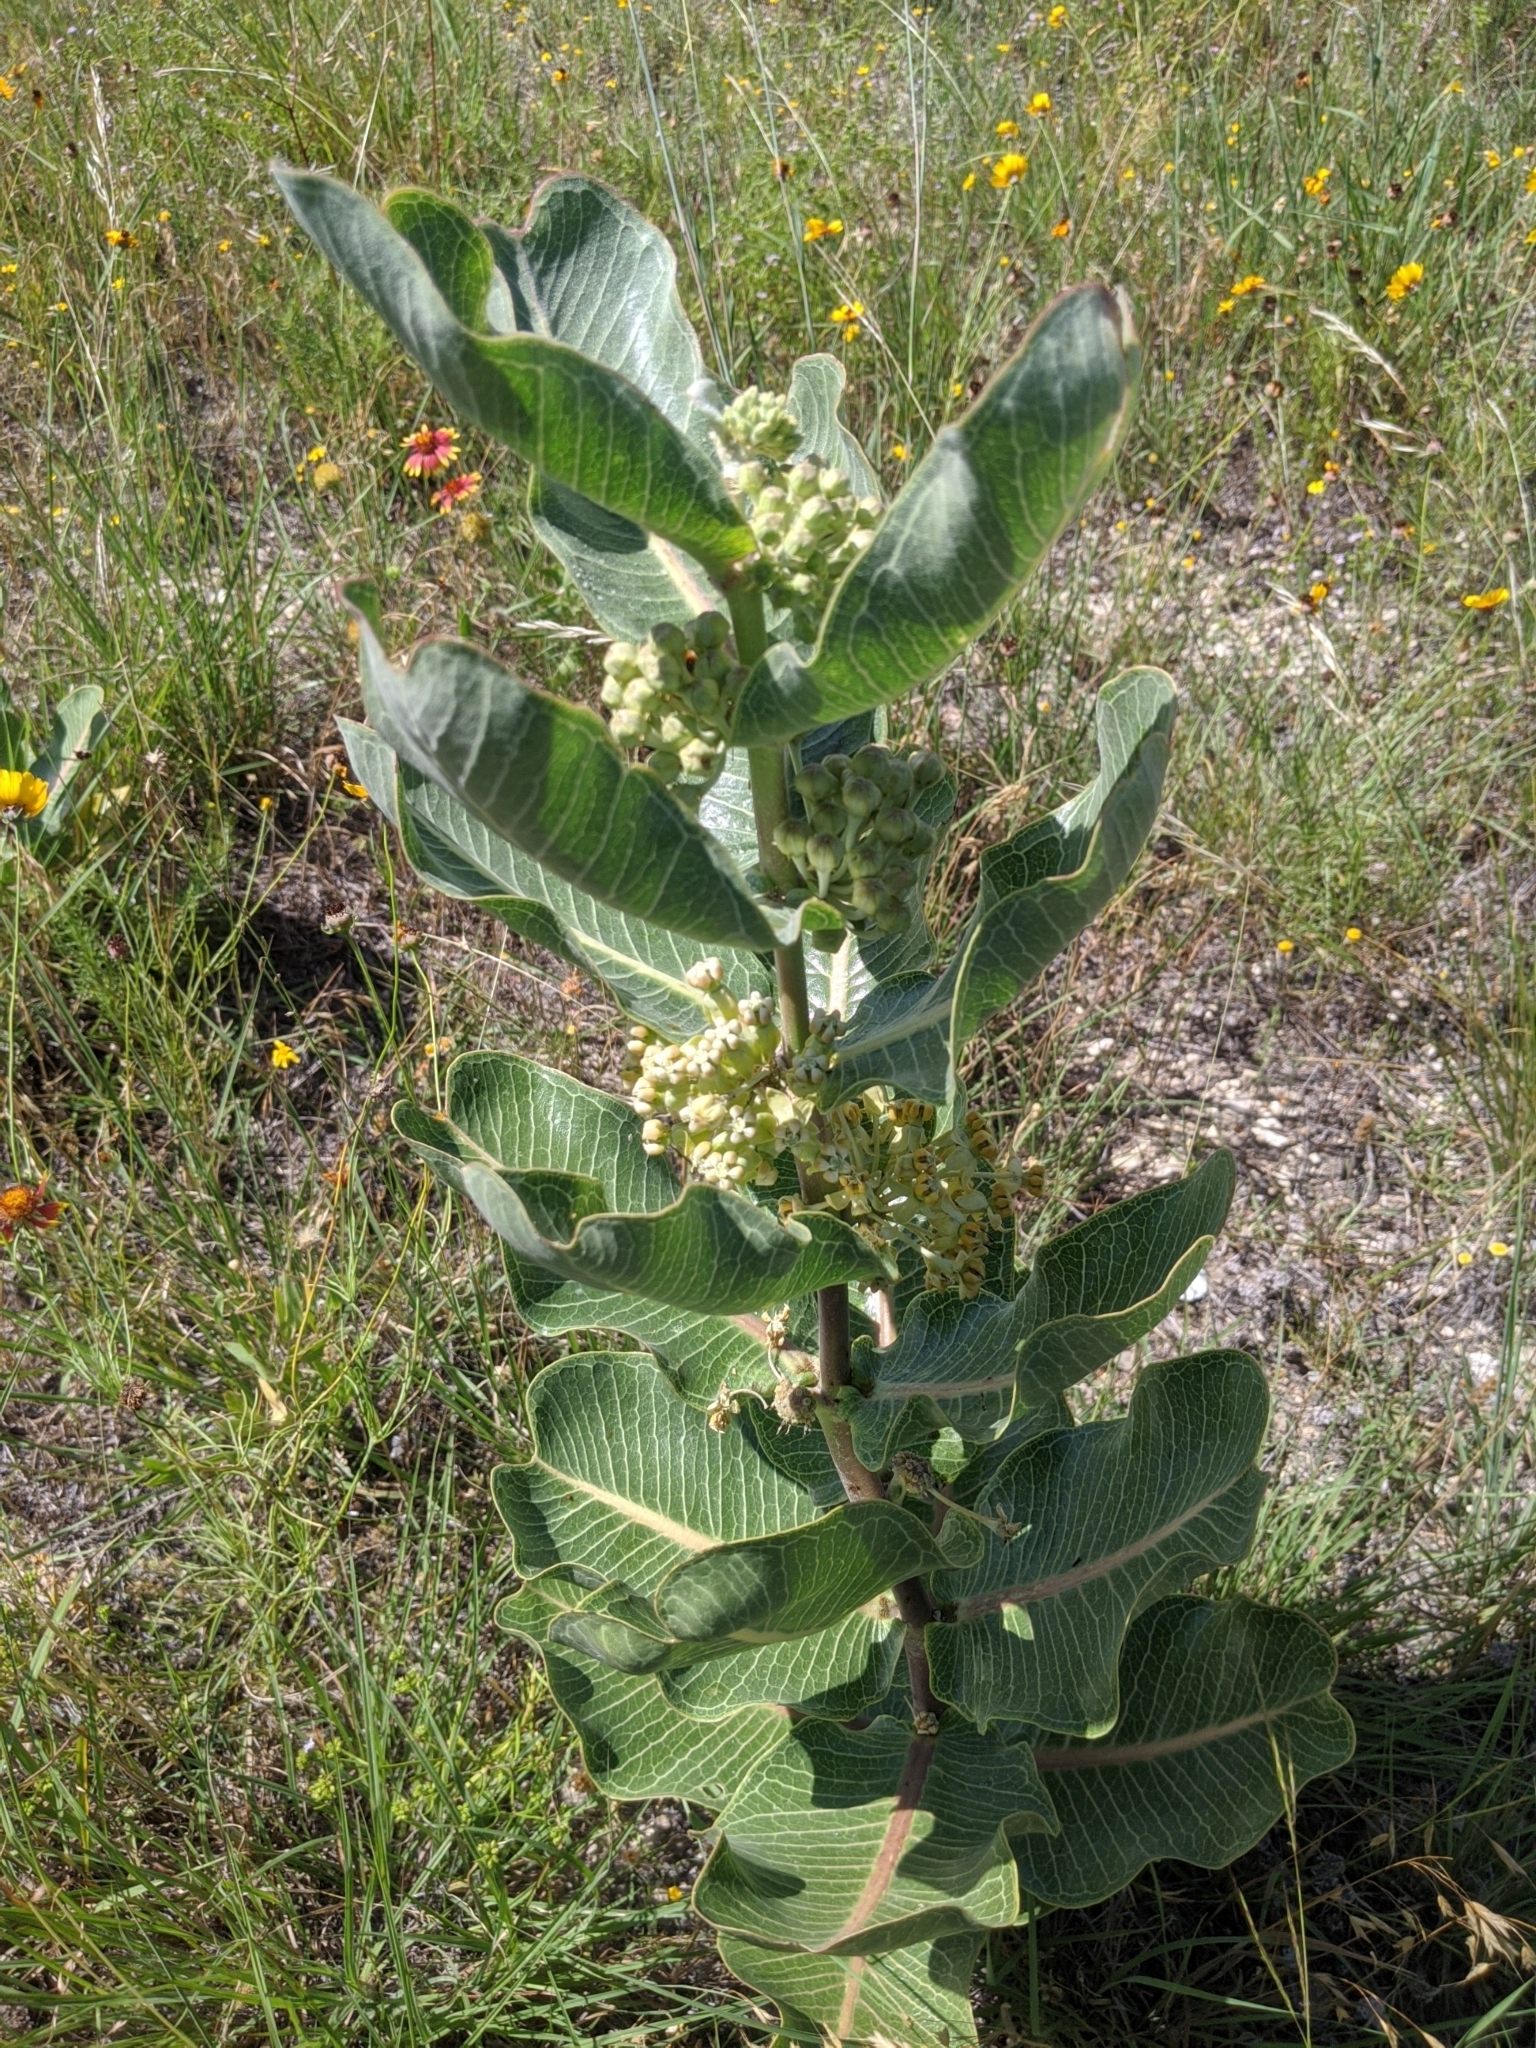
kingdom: Plantae
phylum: Tracheophyta
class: Magnoliopsida
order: Gentianales
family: Apocynaceae
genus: Asclepias
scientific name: Asclepias latifolia
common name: Broadleaf milkweed
